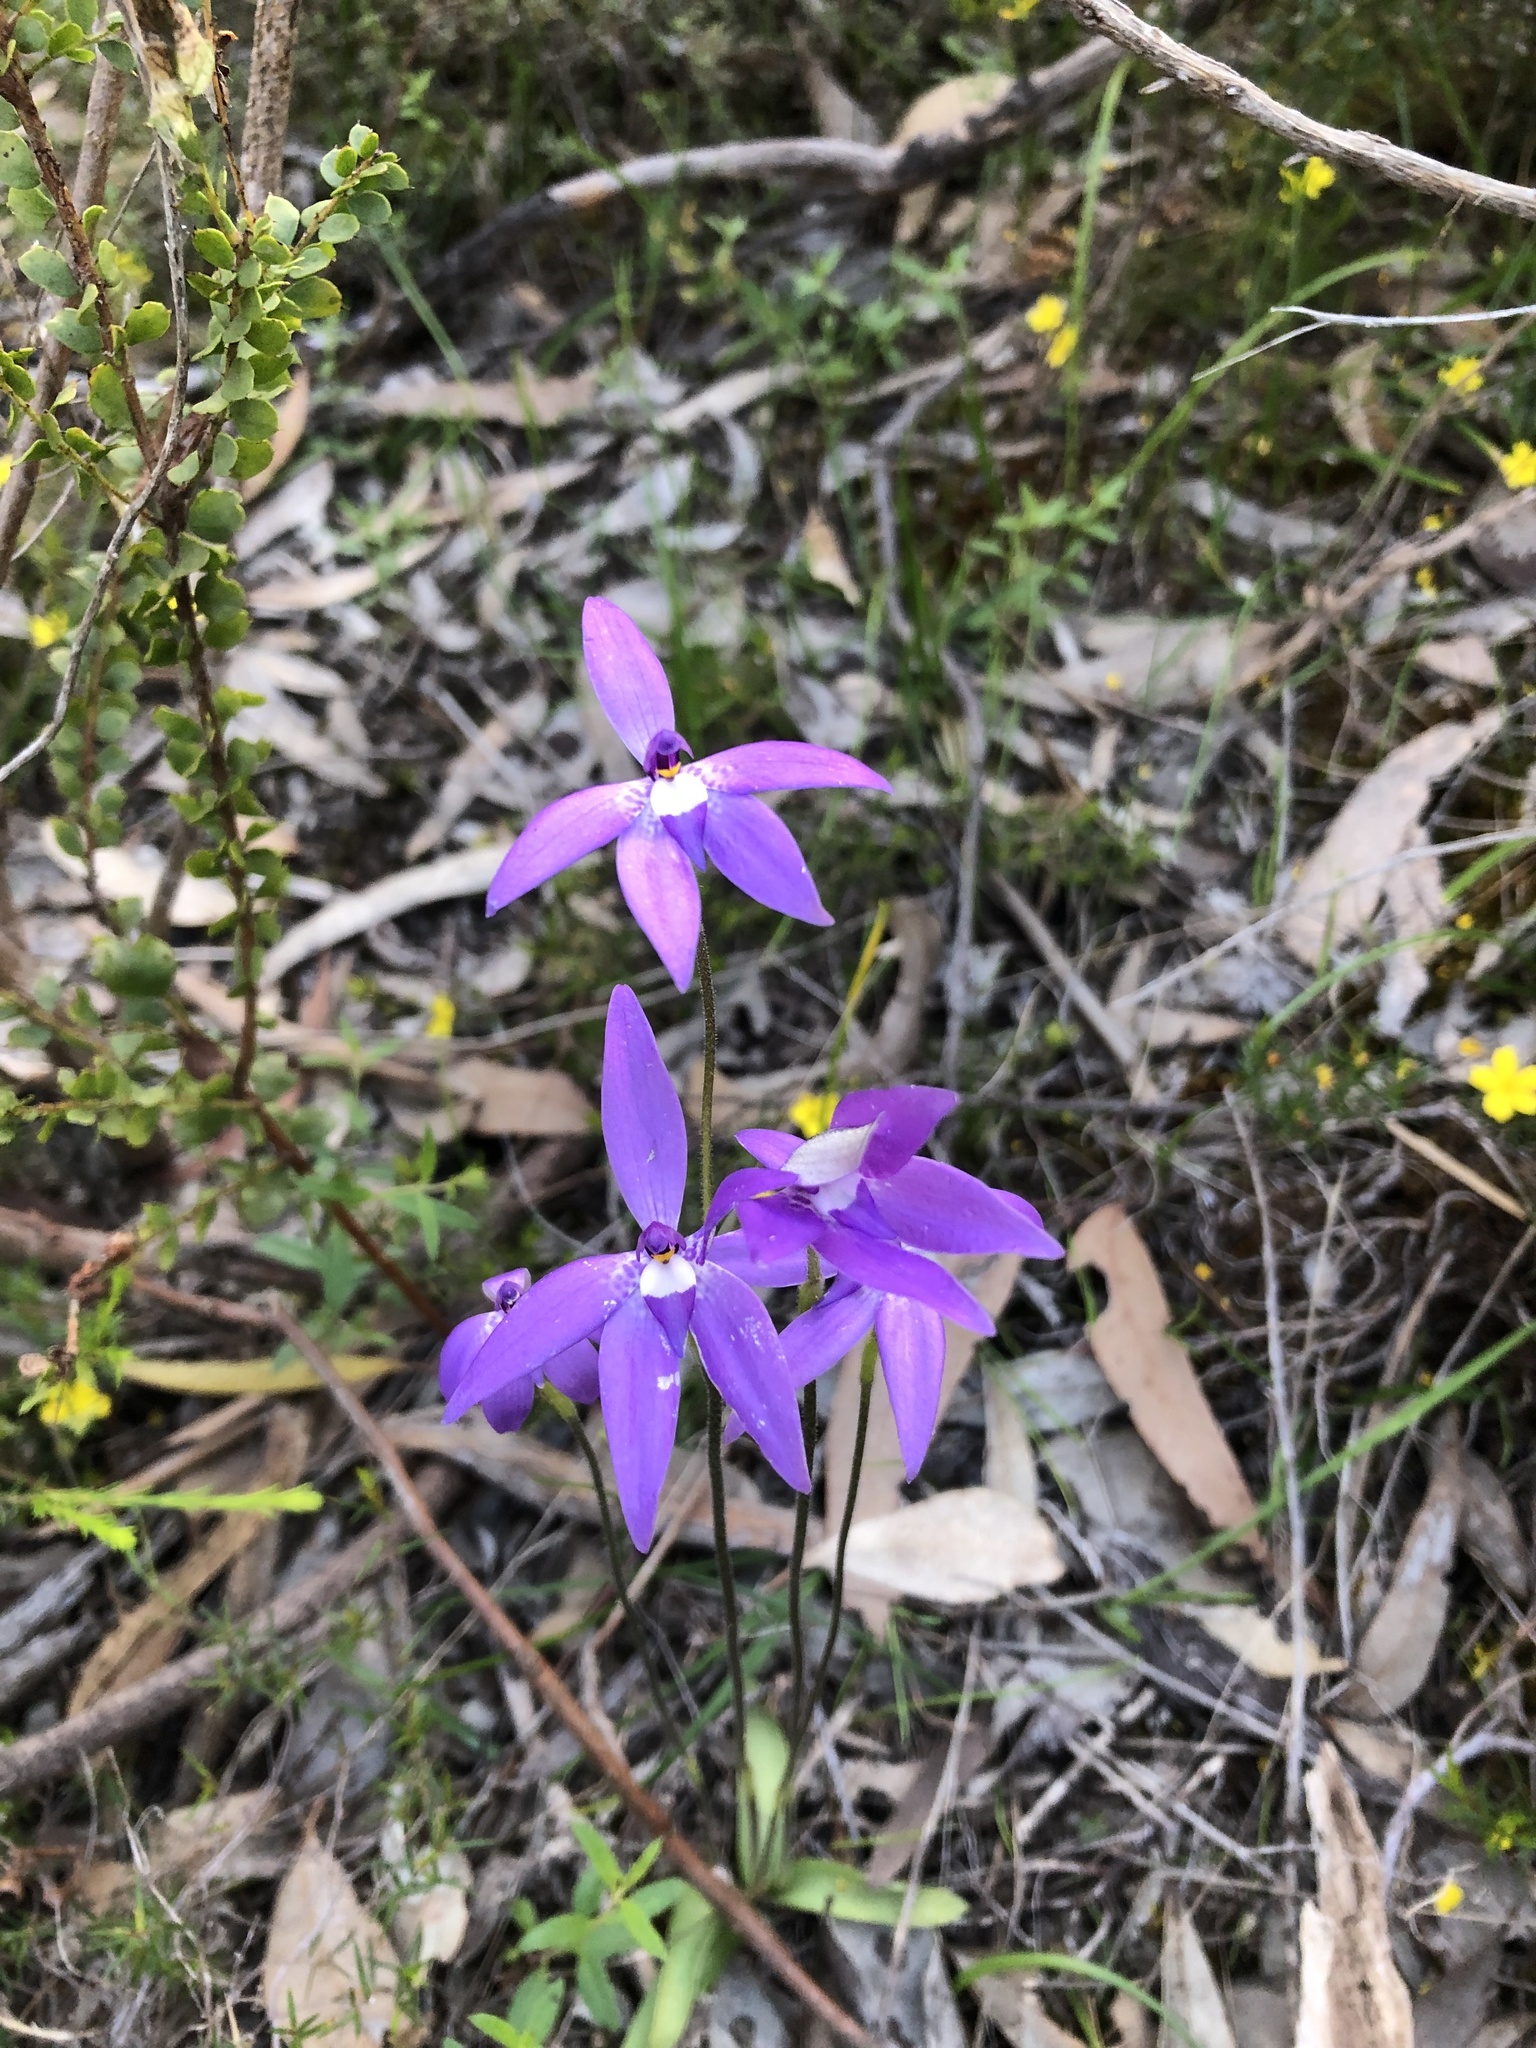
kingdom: Plantae
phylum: Tracheophyta
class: Liliopsida
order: Asparagales
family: Orchidaceae
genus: Caladenia
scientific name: Caladenia major
